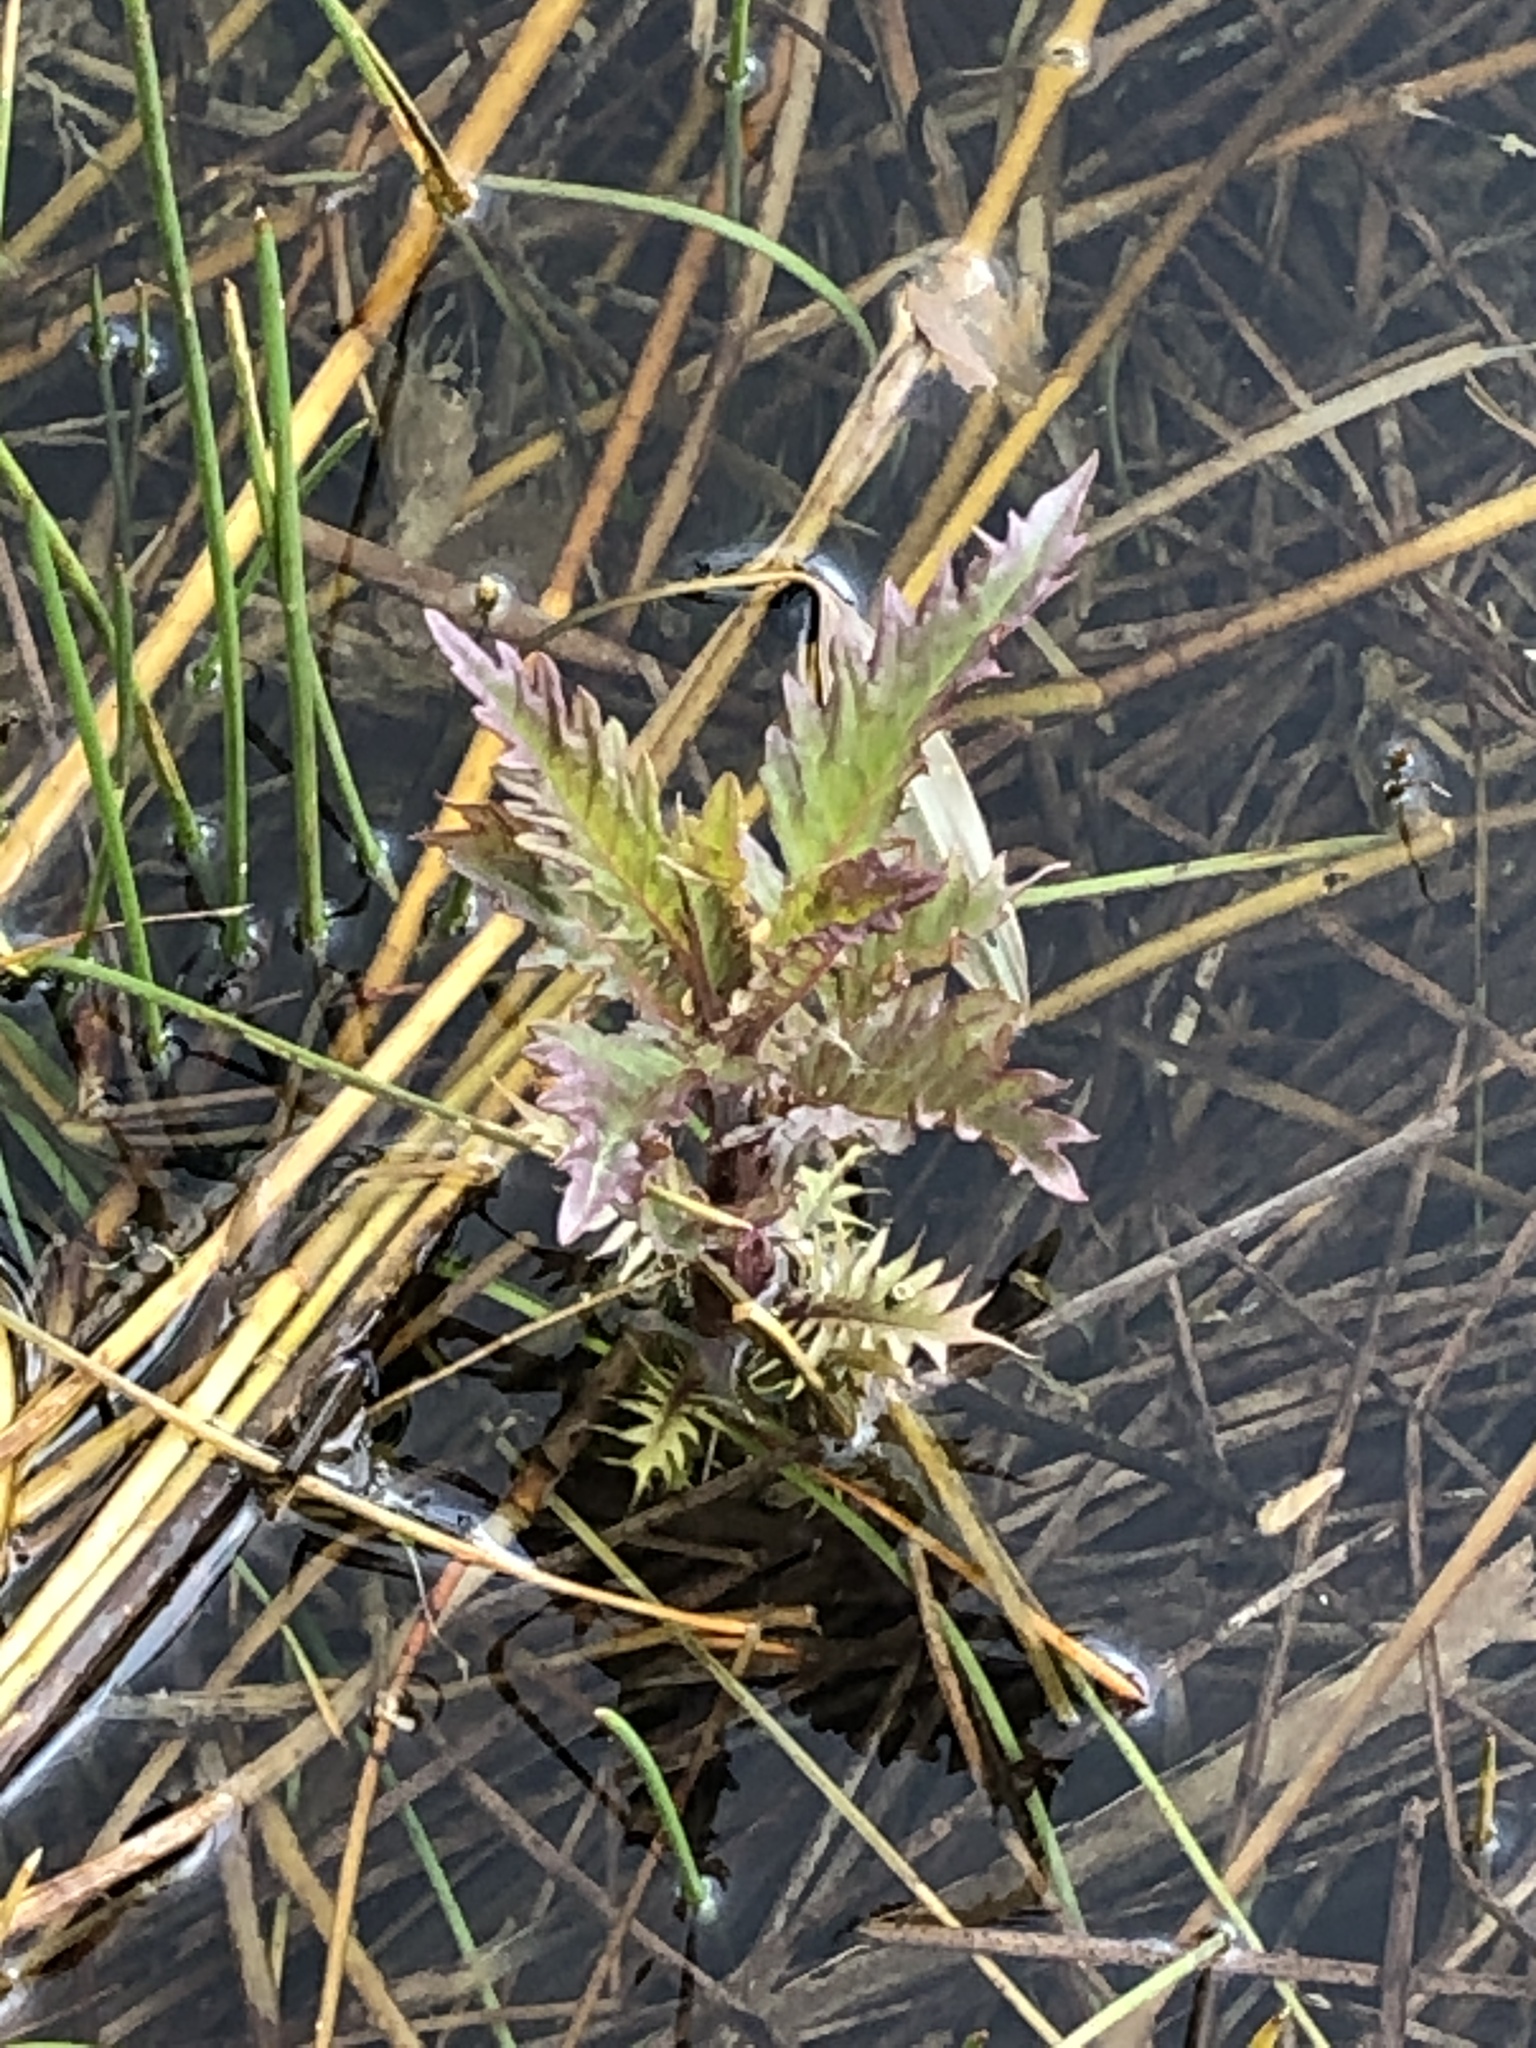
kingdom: Plantae
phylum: Tracheophyta
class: Magnoliopsida
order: Lamiales
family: Lamiaceae
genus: Lycopus
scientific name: Lycopus europaeus
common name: European bugleweed
